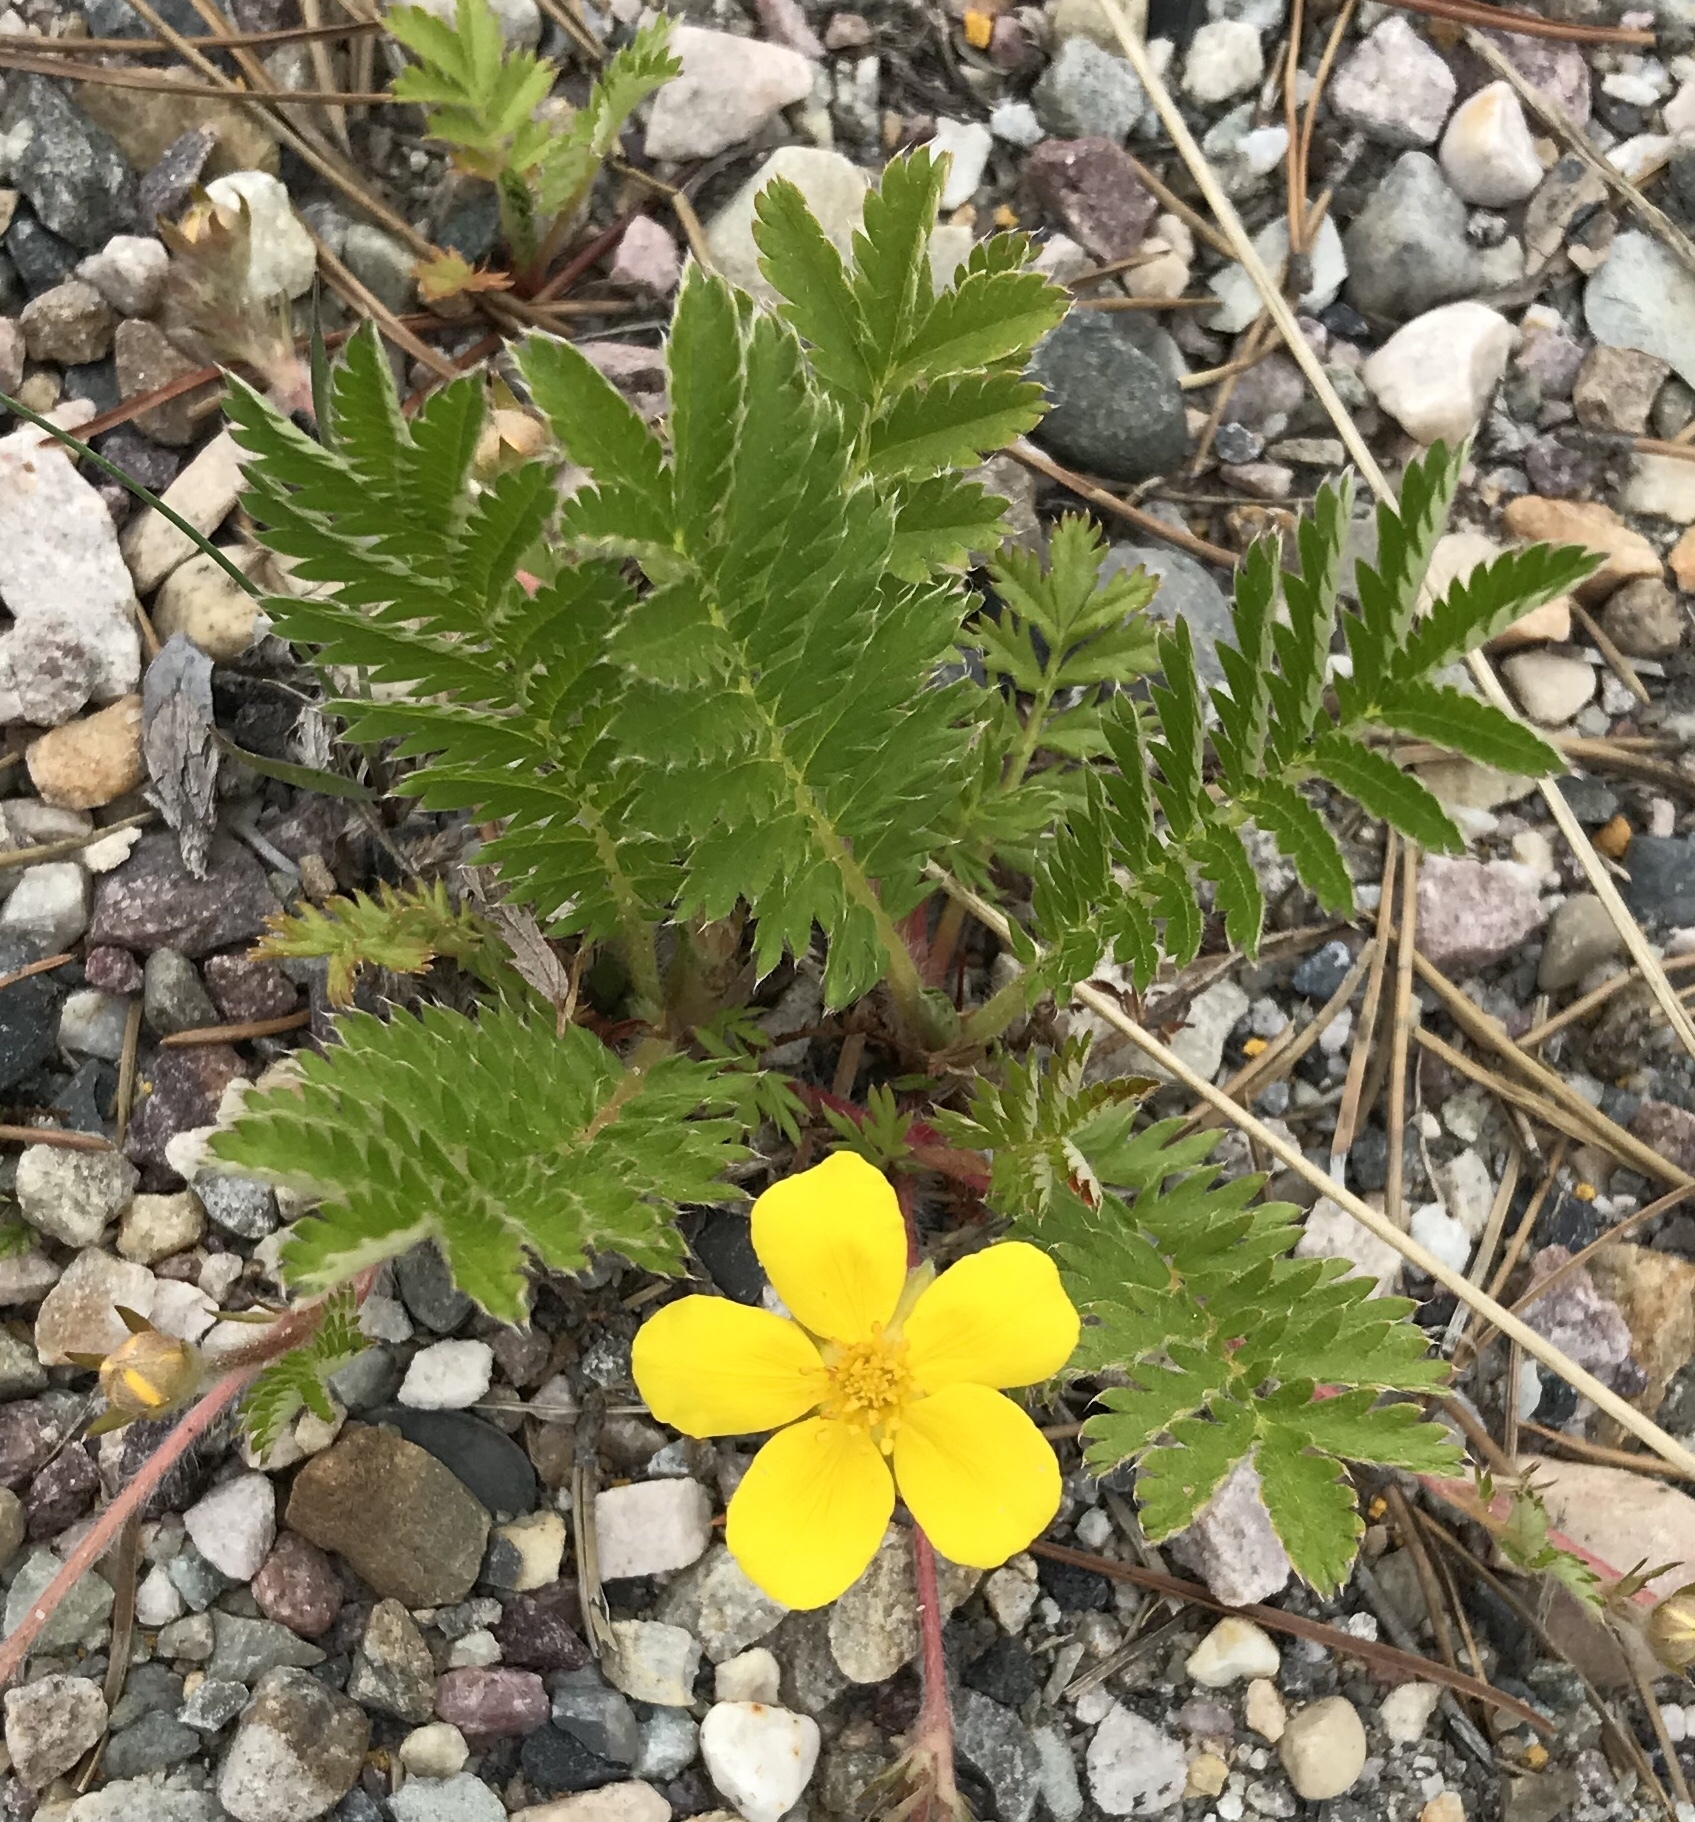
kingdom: Plantae
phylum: Tracheophyta
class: Magnoliopsida
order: Rosales
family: Rosaceae
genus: Argentina
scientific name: Argentina anserina
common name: Common silverweed
